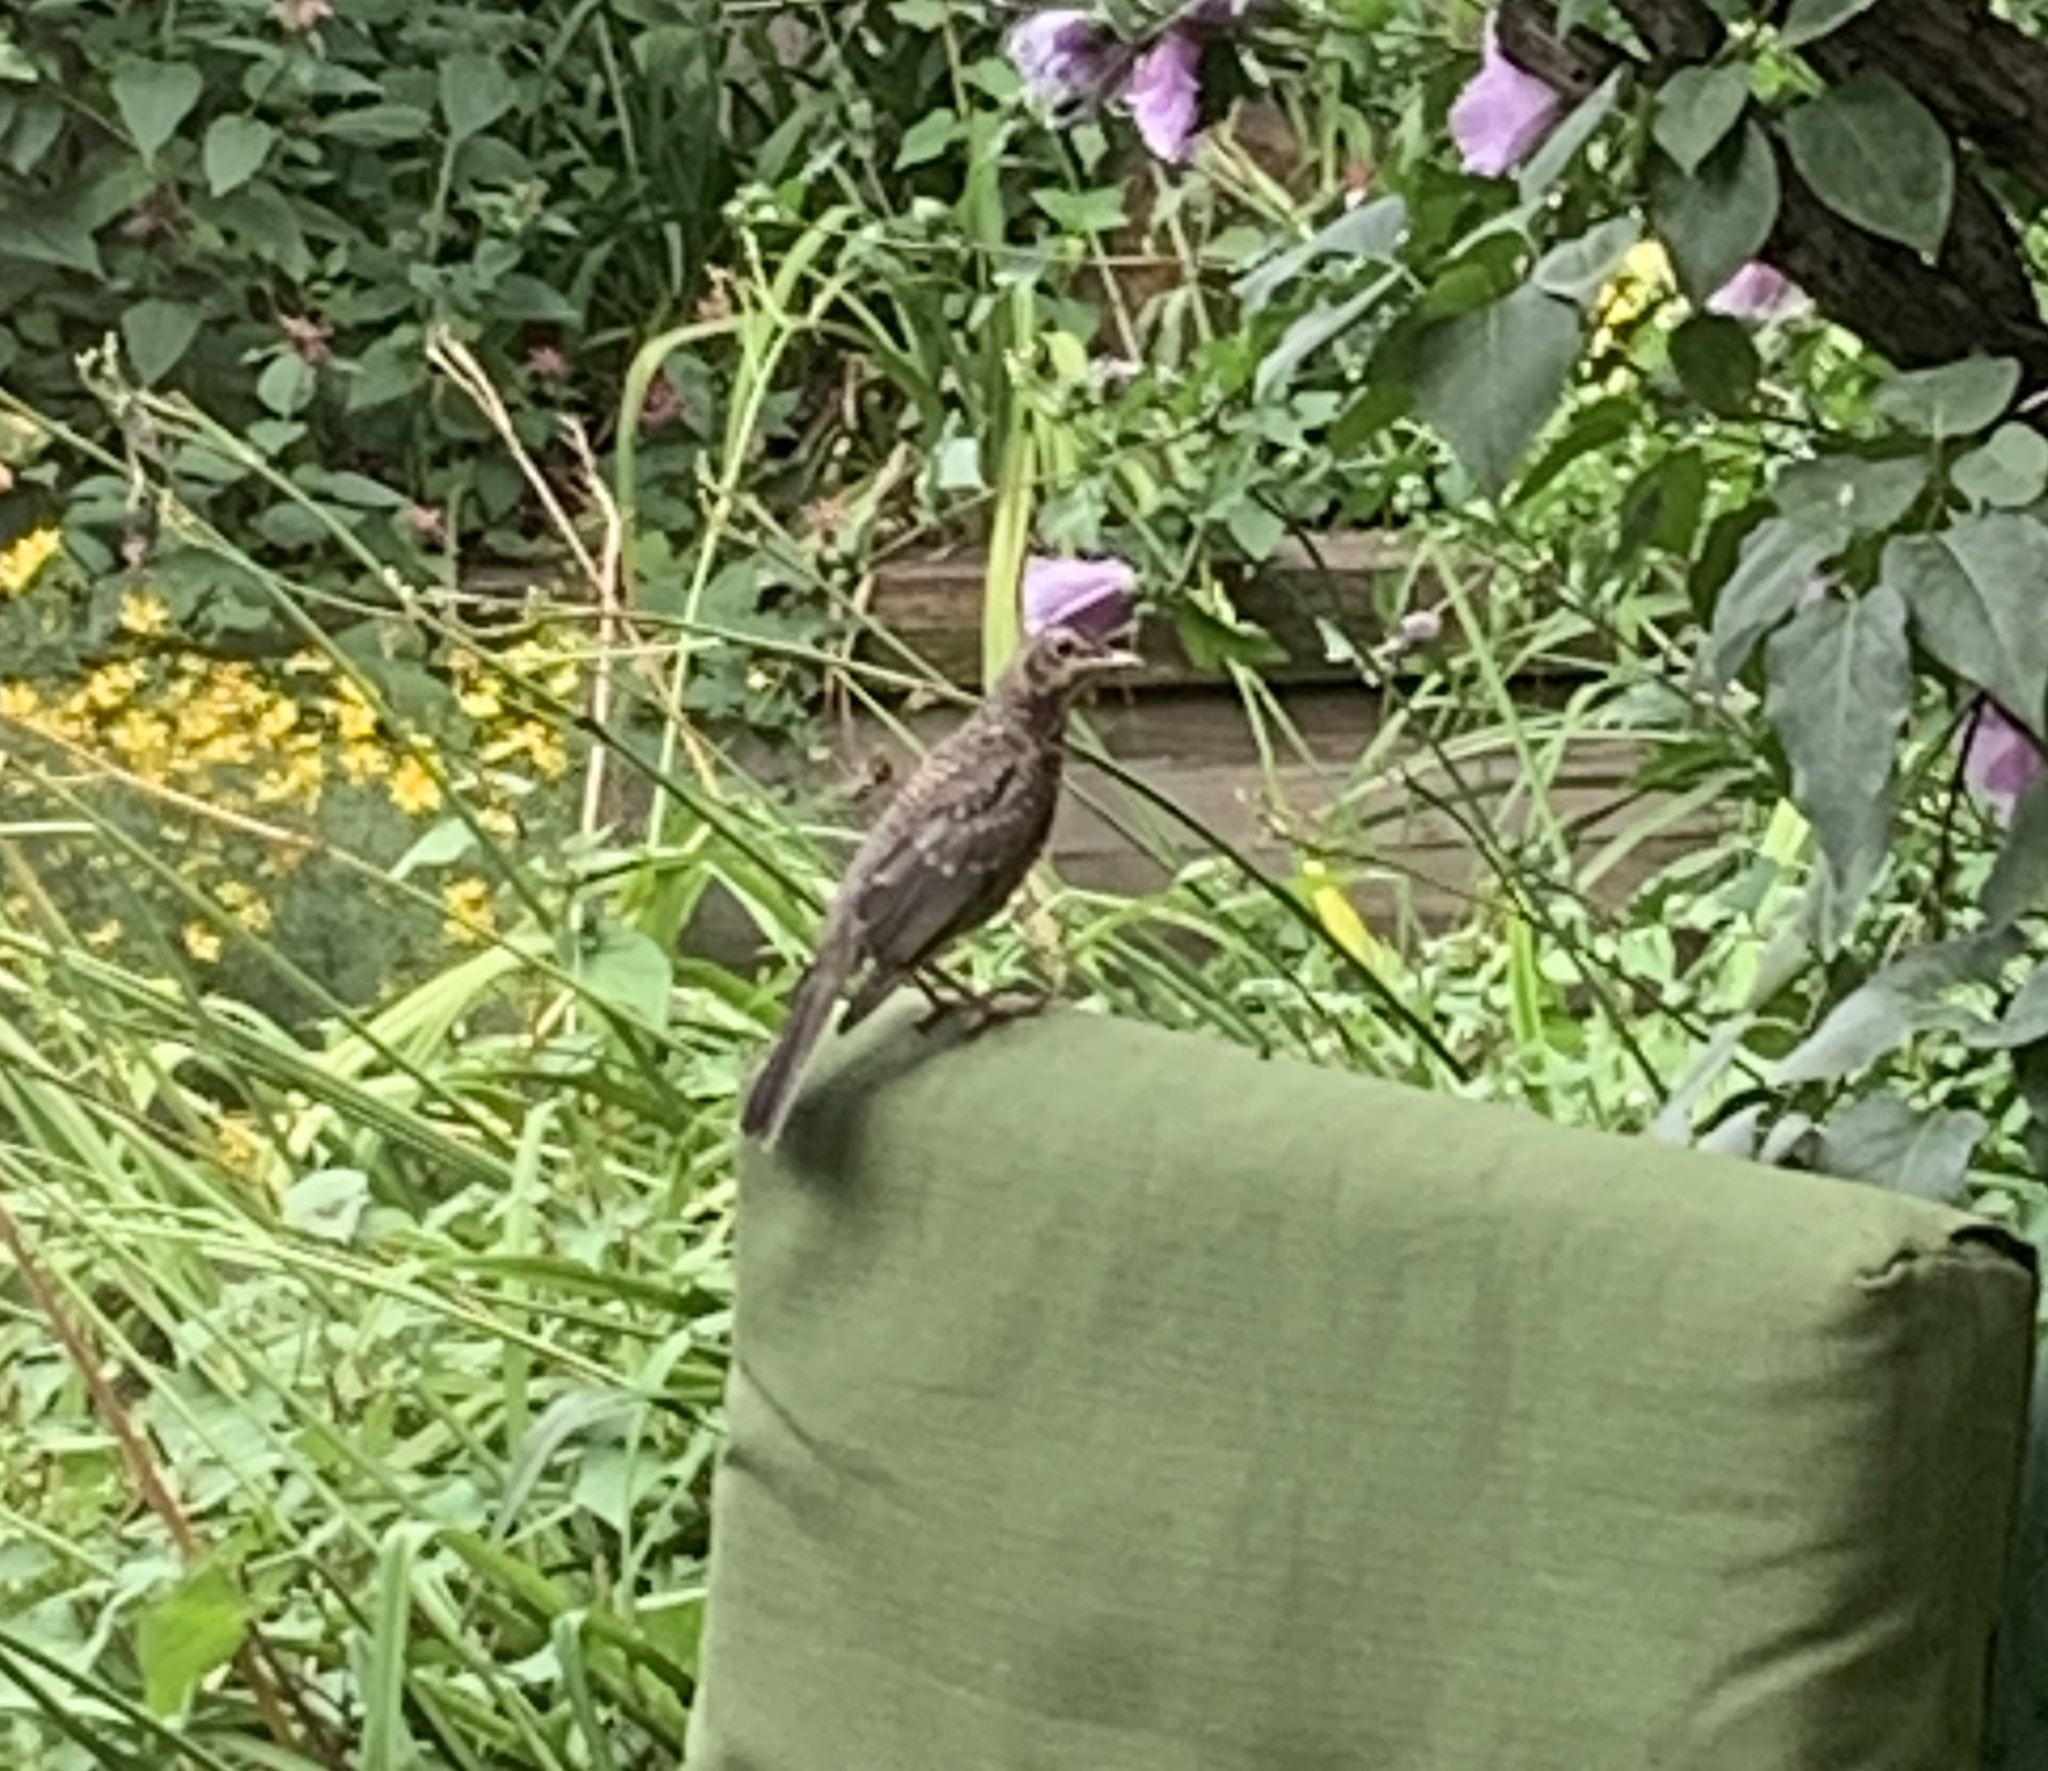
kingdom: Animalia
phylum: Chordata
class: Aves
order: Passeriformes
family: Turdidae
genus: Turdus
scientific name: Turdus migratorius
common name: American robin
